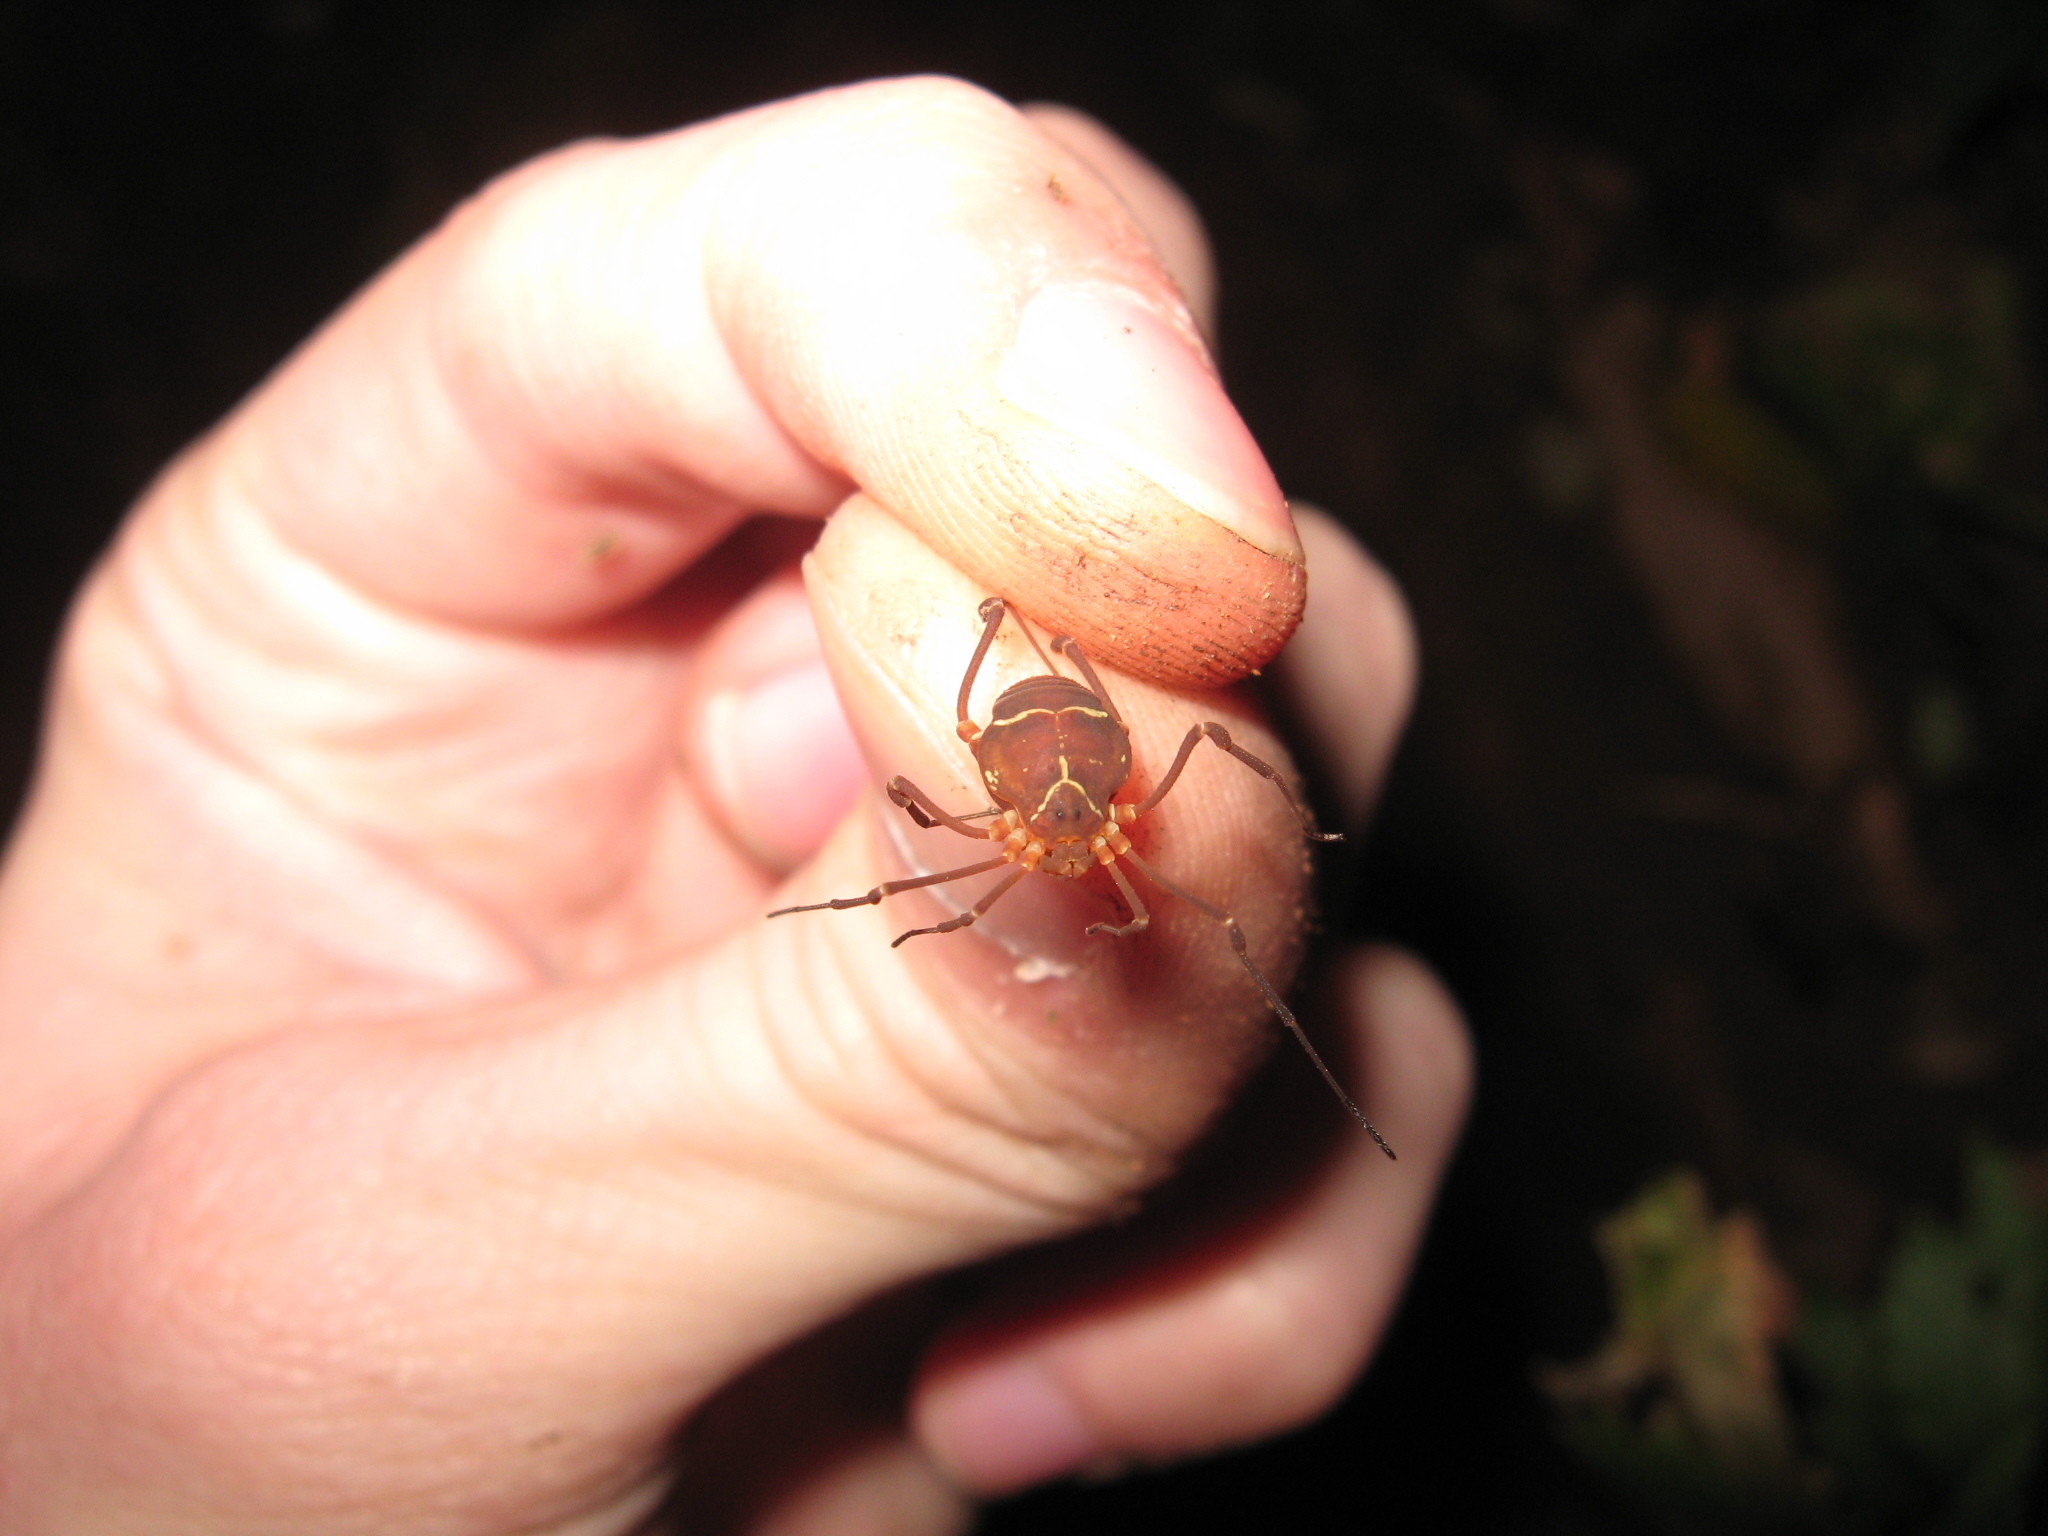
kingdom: Animalia
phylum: Arthropoda
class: Arachnida
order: Opiliones
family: Cosmetidae
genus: Libitioides
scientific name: Libitioides sayi
